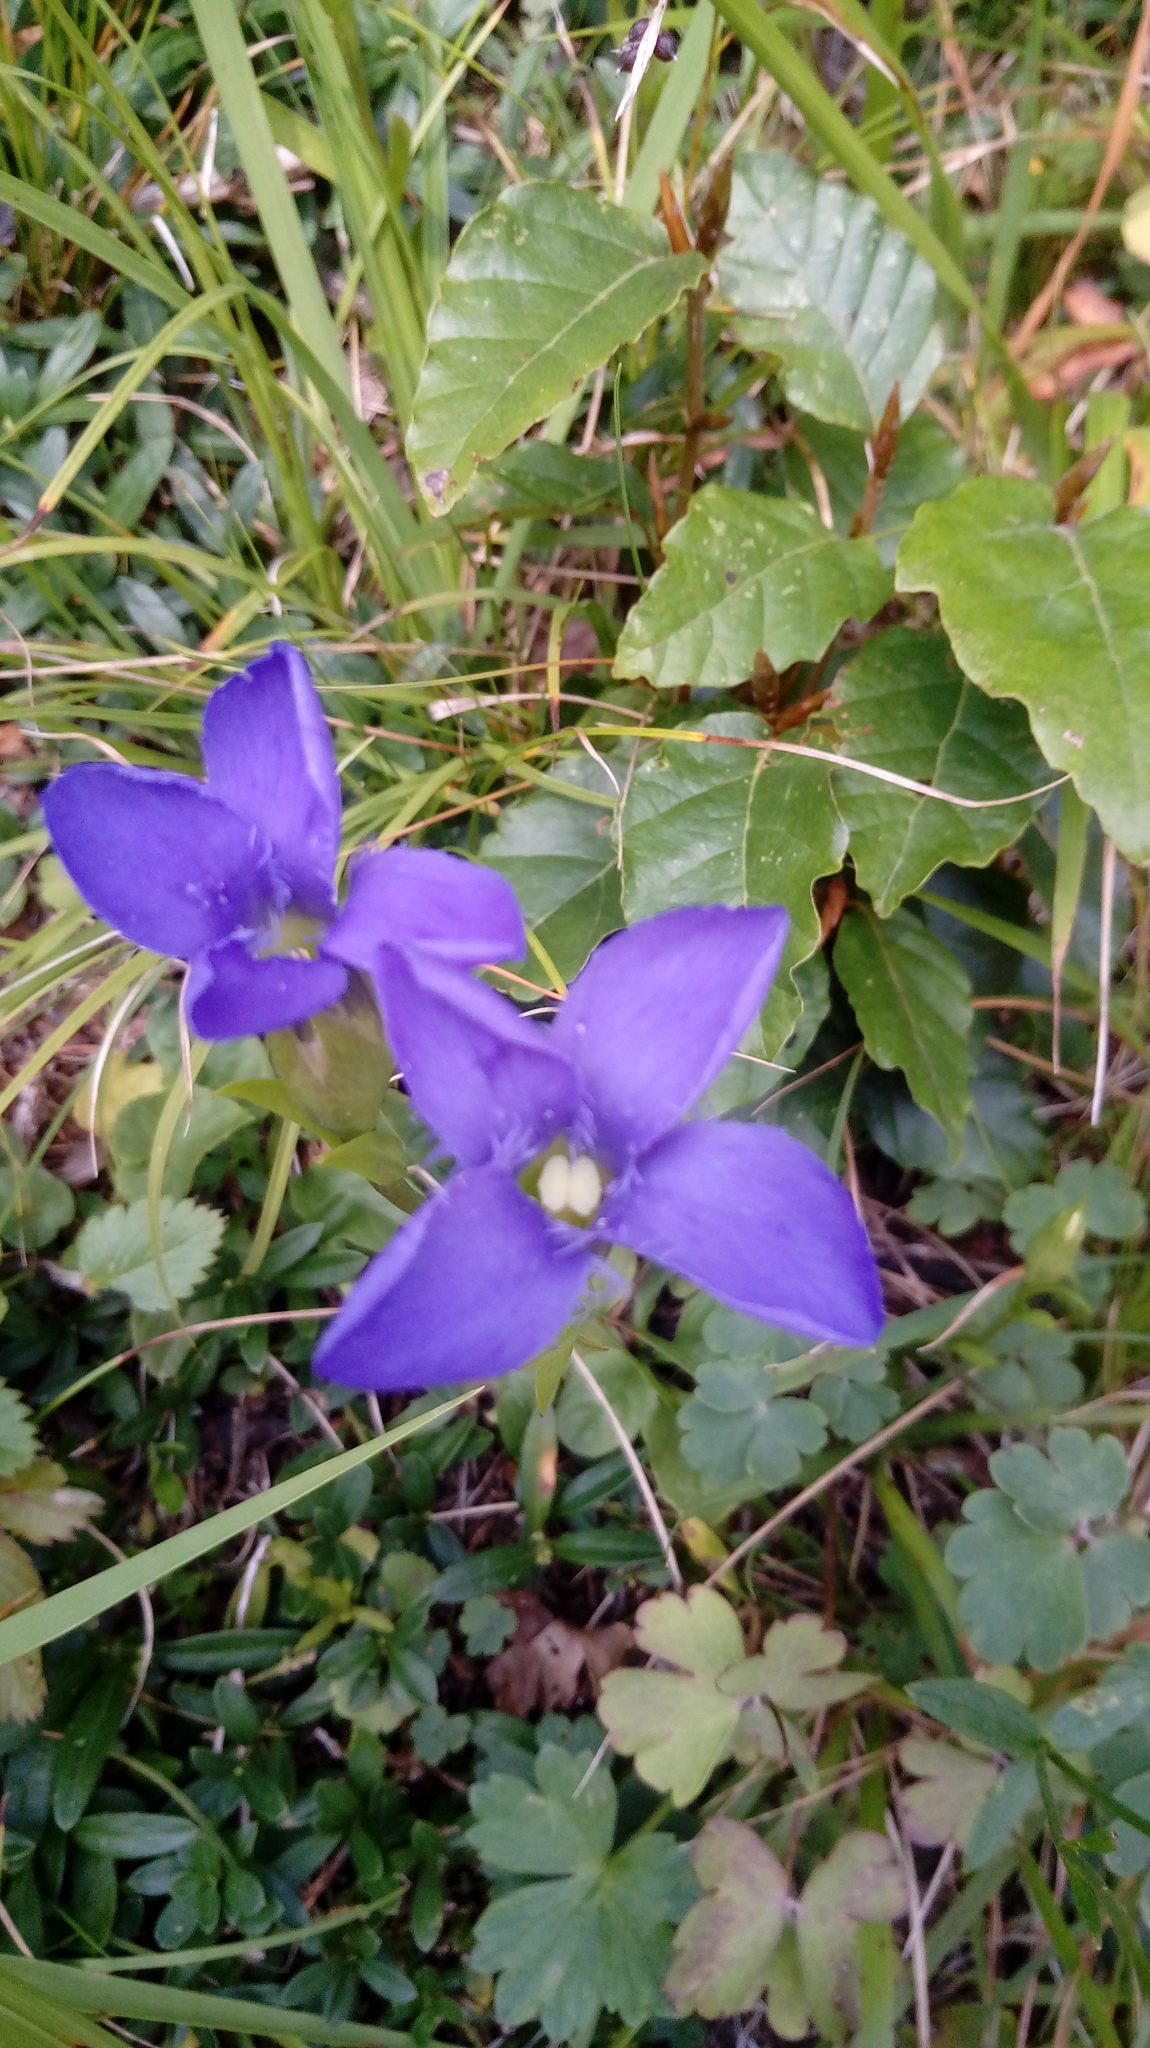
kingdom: Plantae
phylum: Tracheophyta
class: Magnoliopsida
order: Gentianales
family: Gentianaceae
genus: Gentianopsis
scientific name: Gentianopsis ciliata
